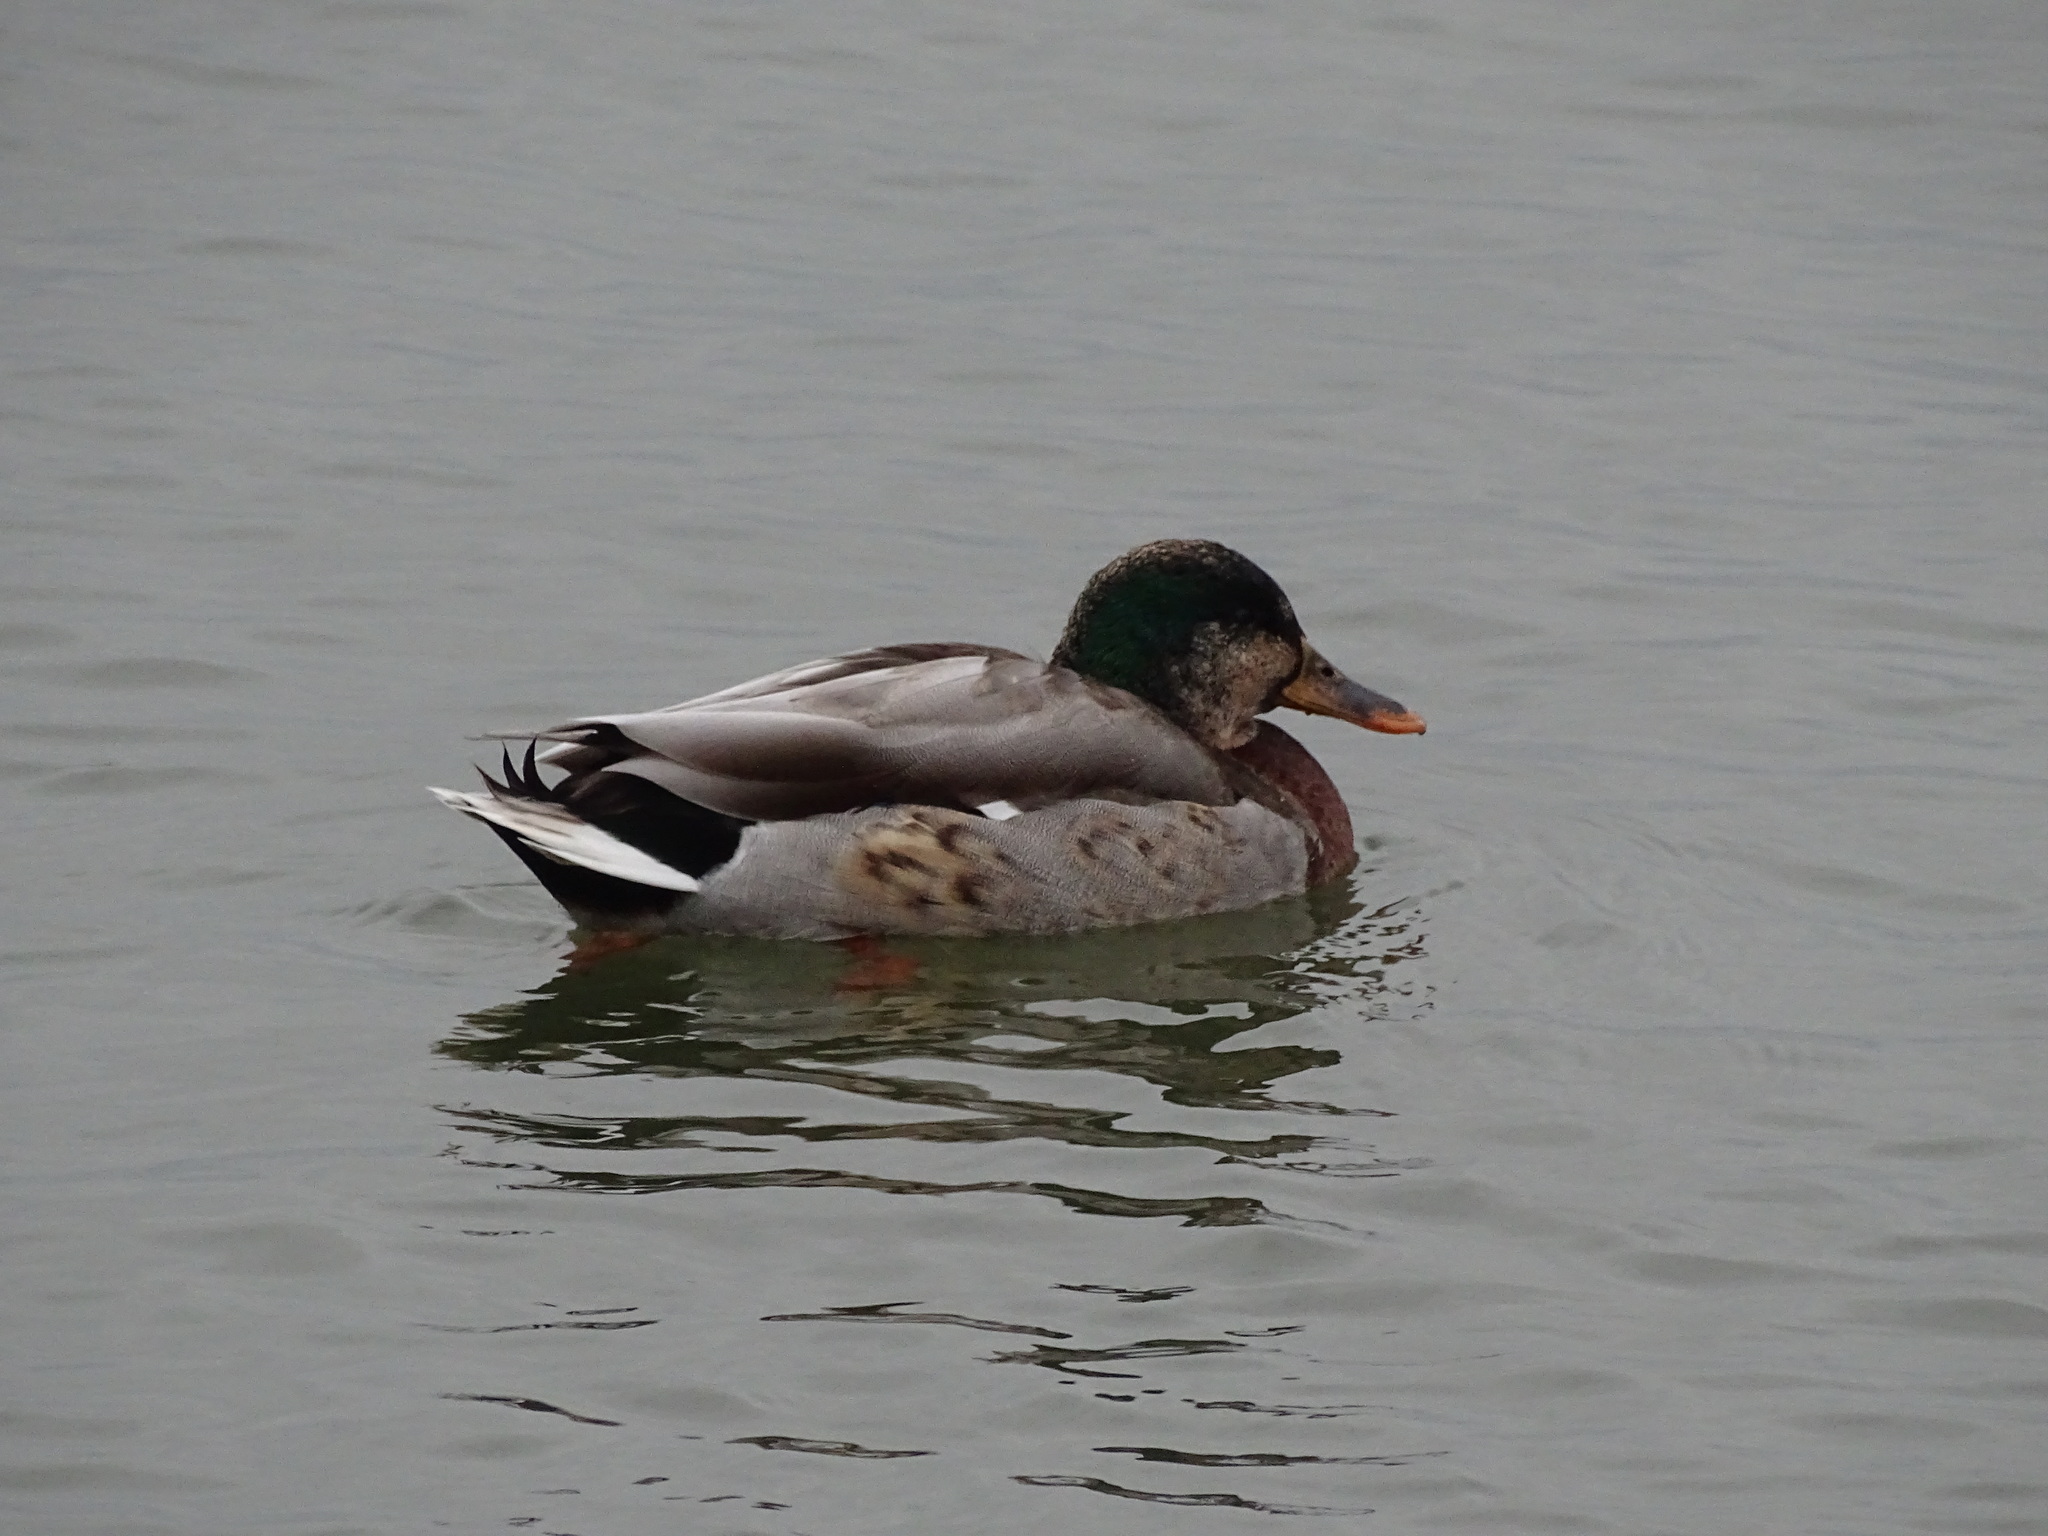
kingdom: Animalia
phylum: Chordata
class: Aves
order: Anseriformes
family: Anatidae
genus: Anas
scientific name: Anas platyrhynchos
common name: Mallard
